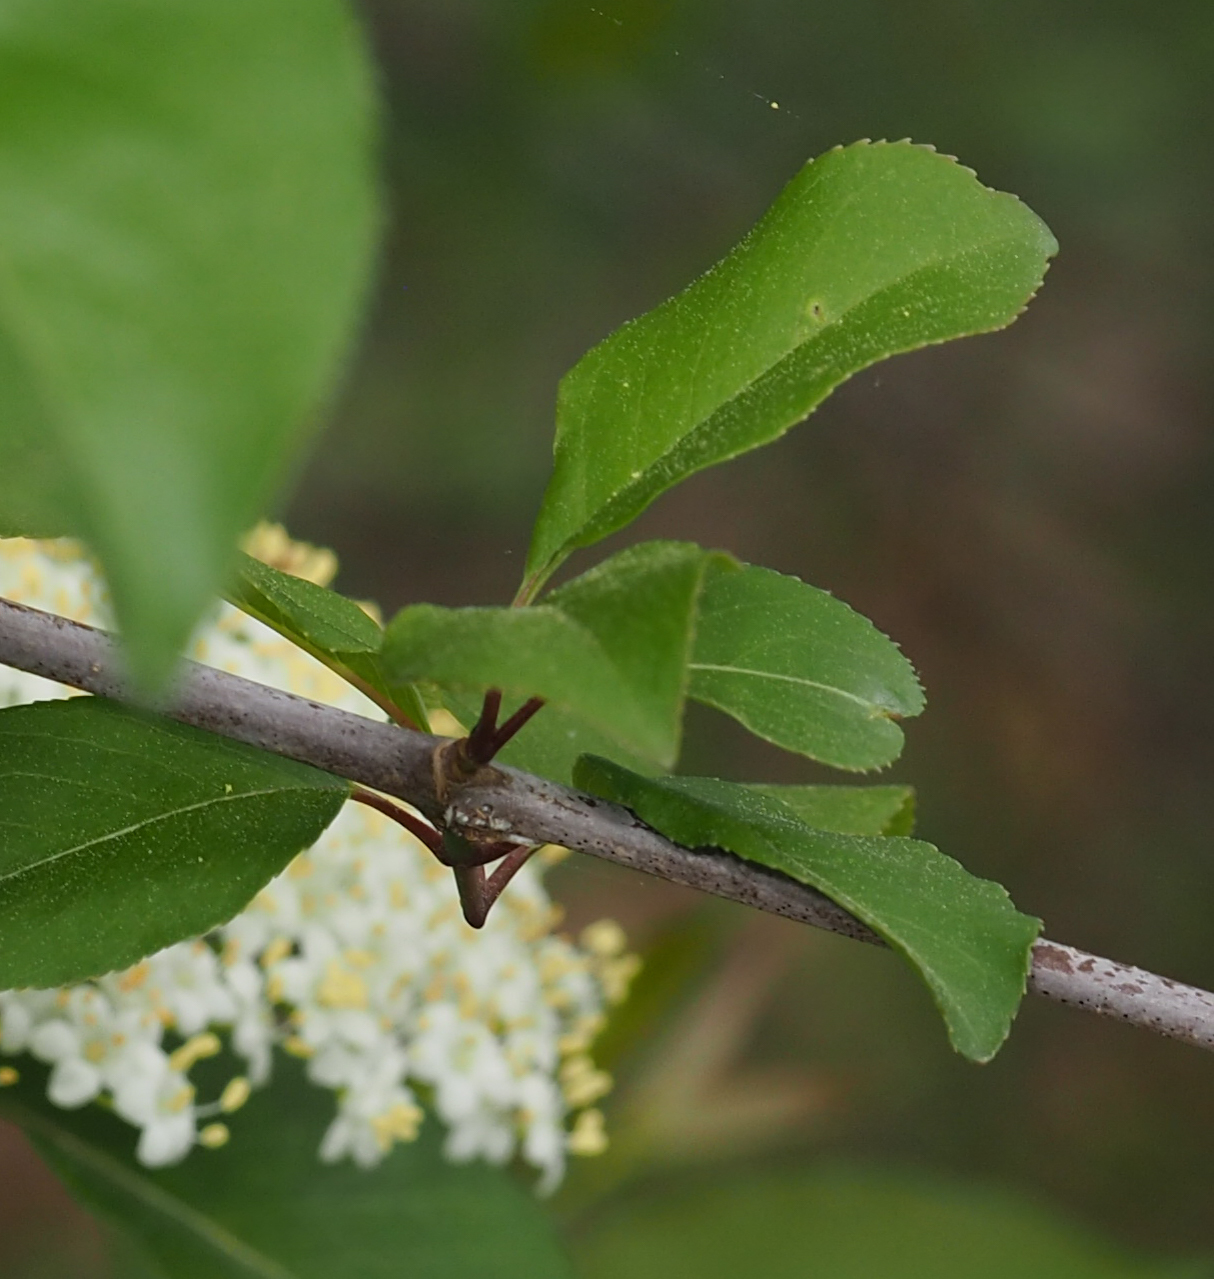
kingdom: Plantae
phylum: Tracheophyta
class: Magnoliopsida
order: Dipsacales
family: Viburnaceae
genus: Viburnum
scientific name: Viburnum prunifolium
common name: Black haw
